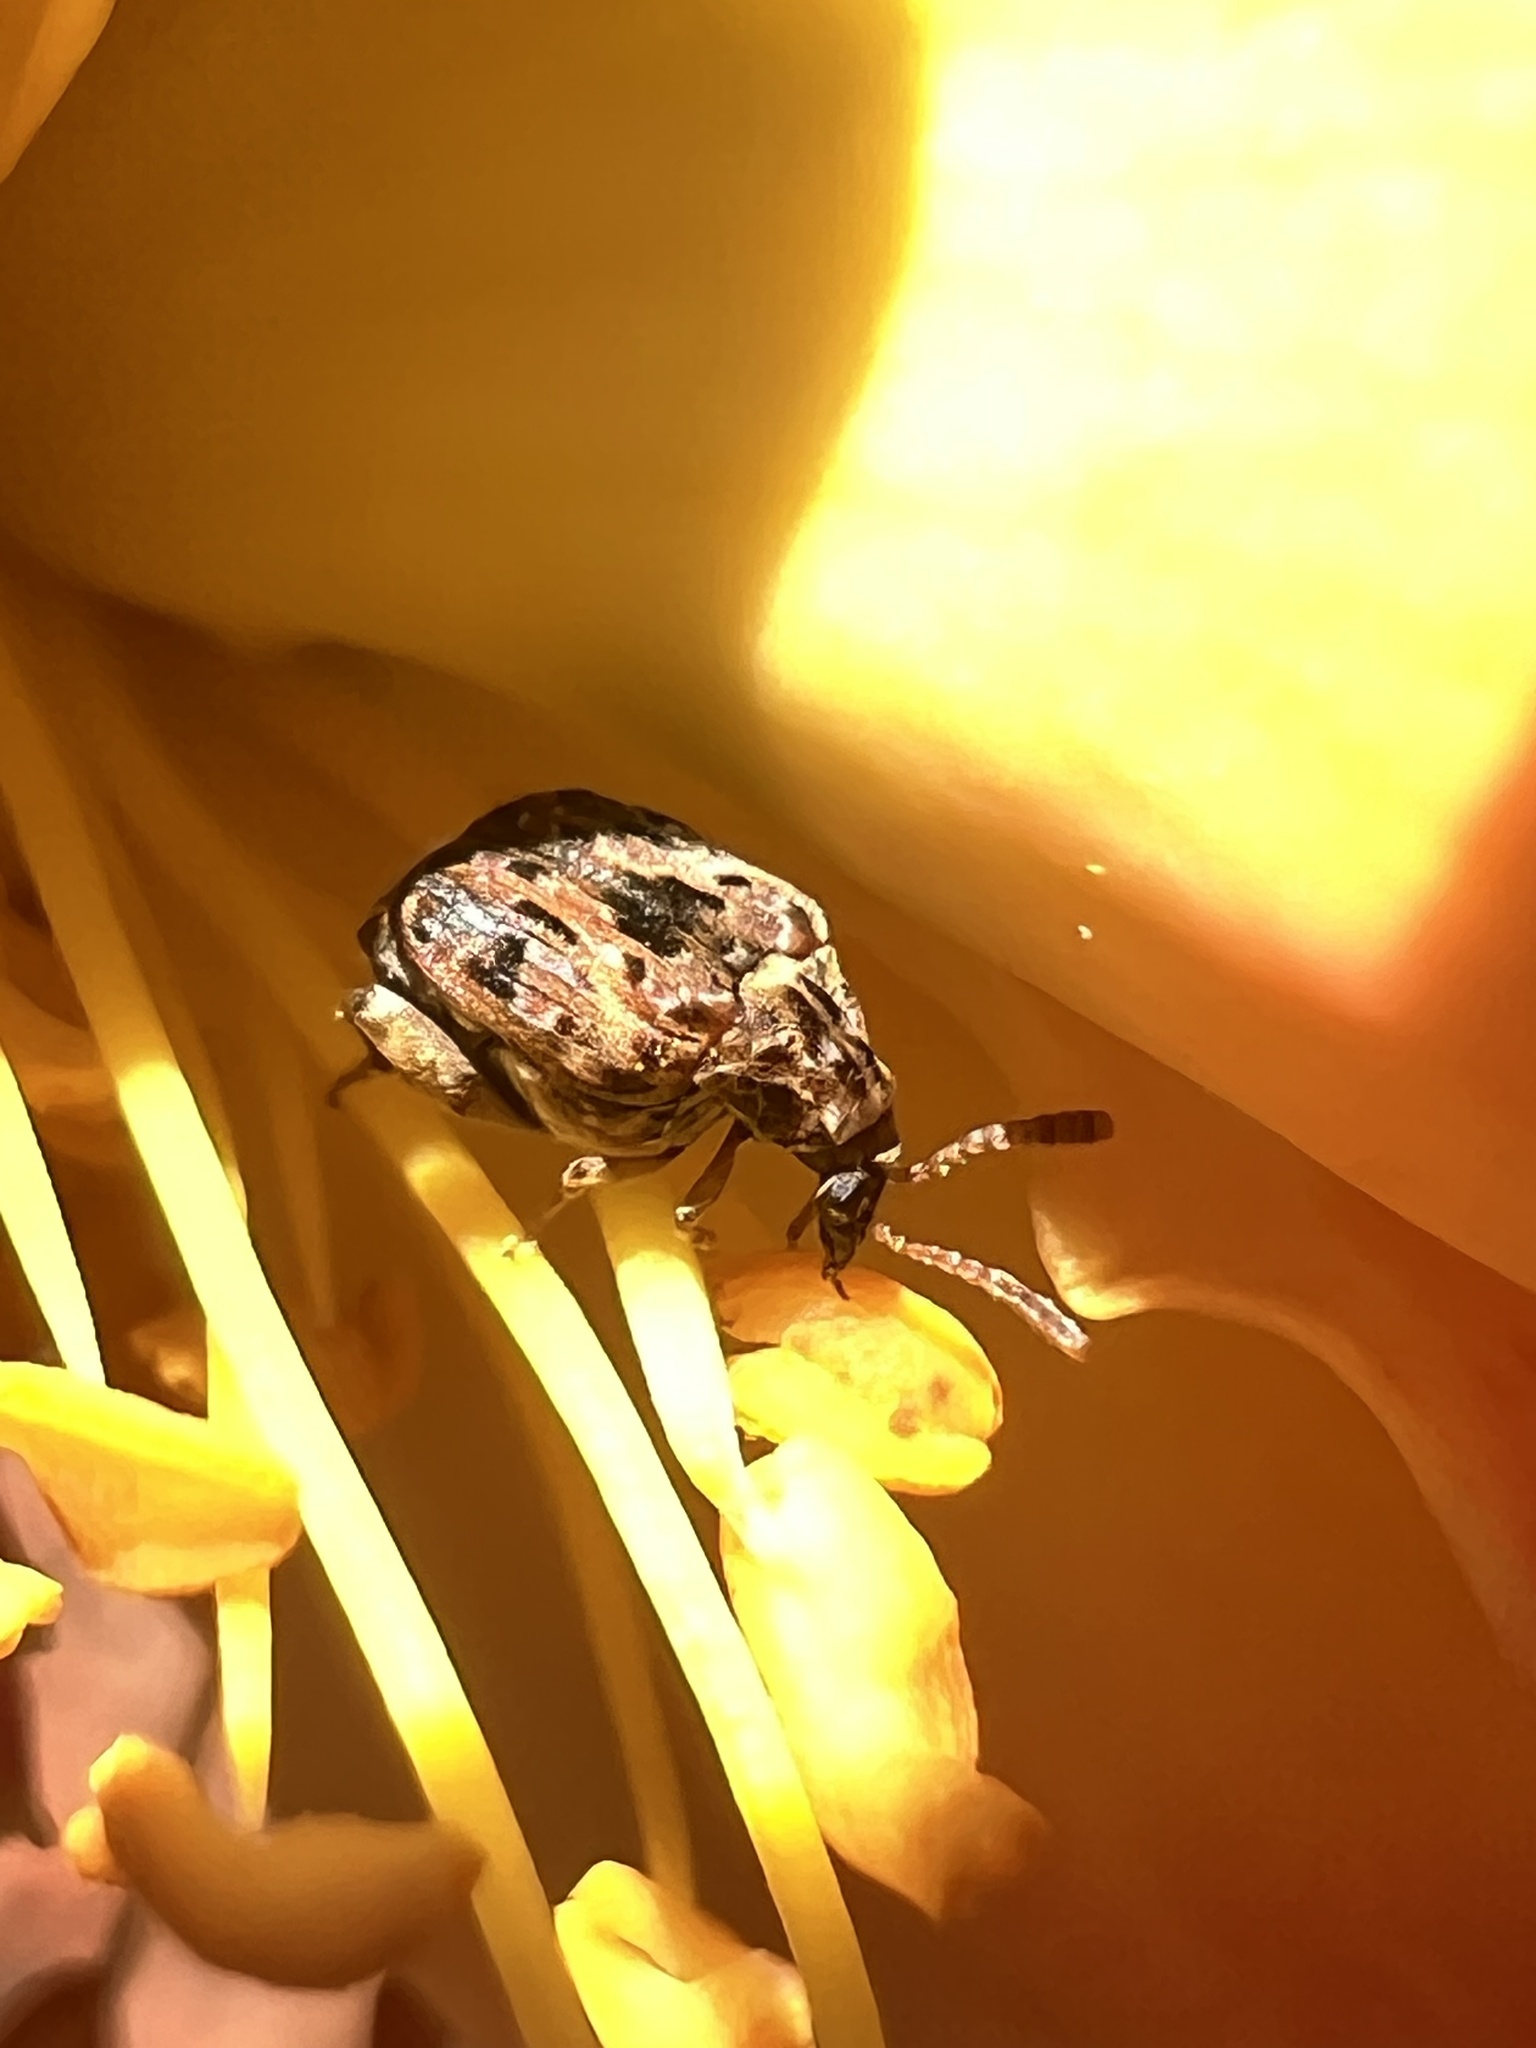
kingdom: Animalia
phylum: Arthropoda
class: Insecta
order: Coleoptera
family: Chrysomelidae
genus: Gibbobruchus
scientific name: Gibbobruchus mimus
